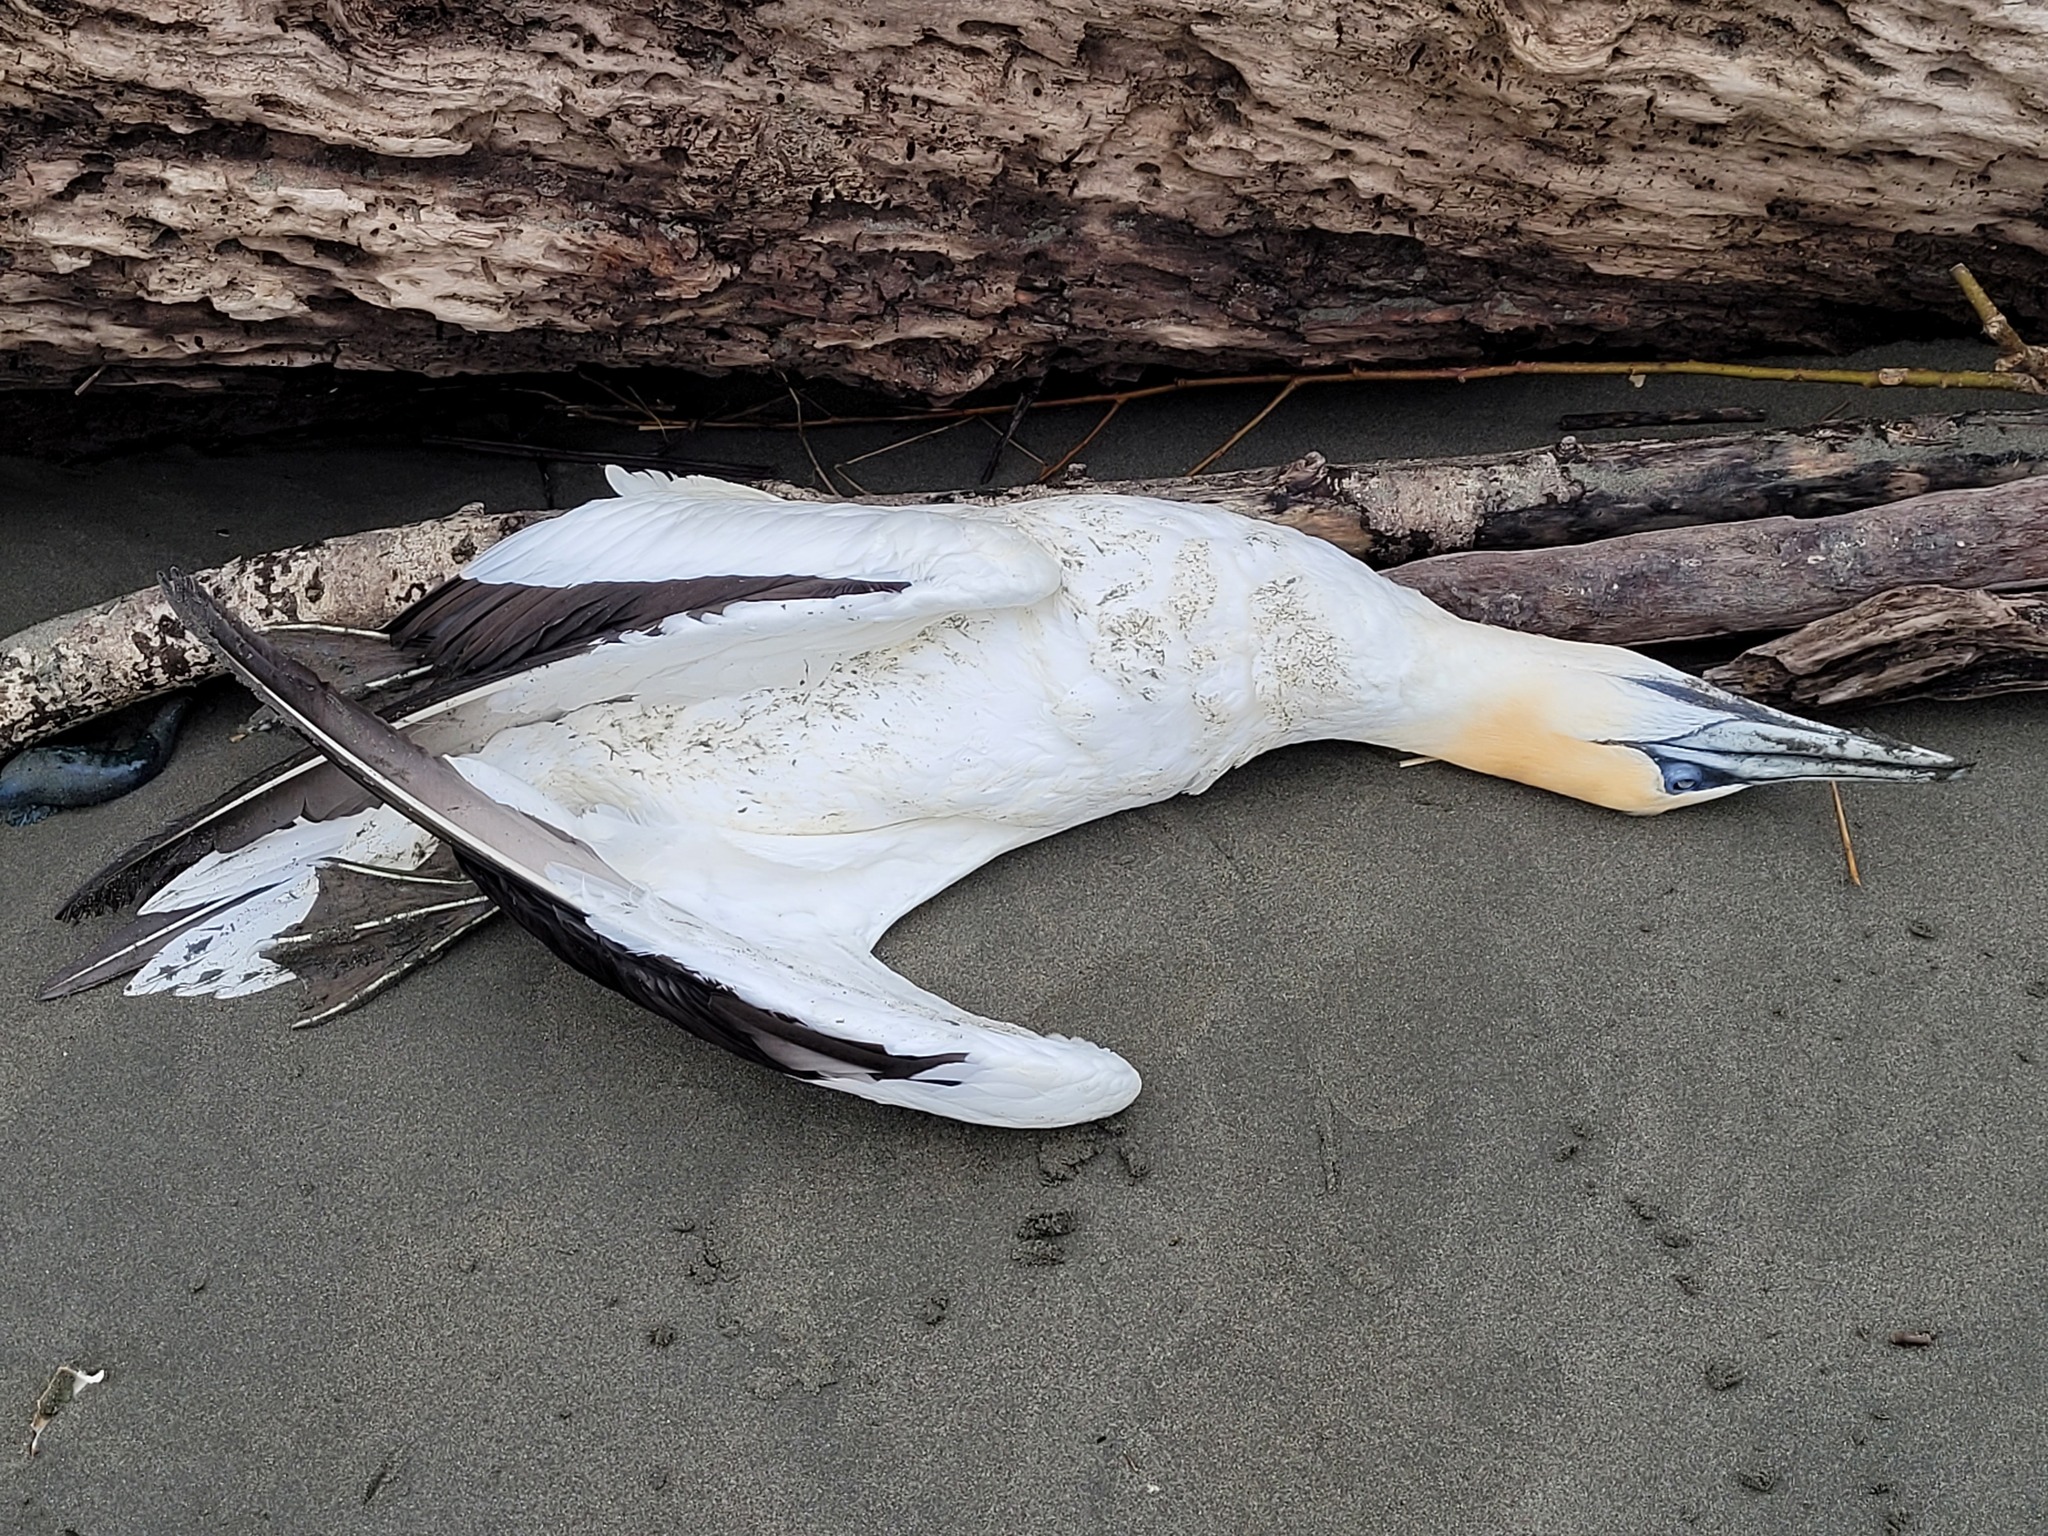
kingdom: Animalia
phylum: Chordata
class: Aves
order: Suliformes
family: Sulidae
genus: Morus
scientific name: Morus serrator
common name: Australasian gannet
